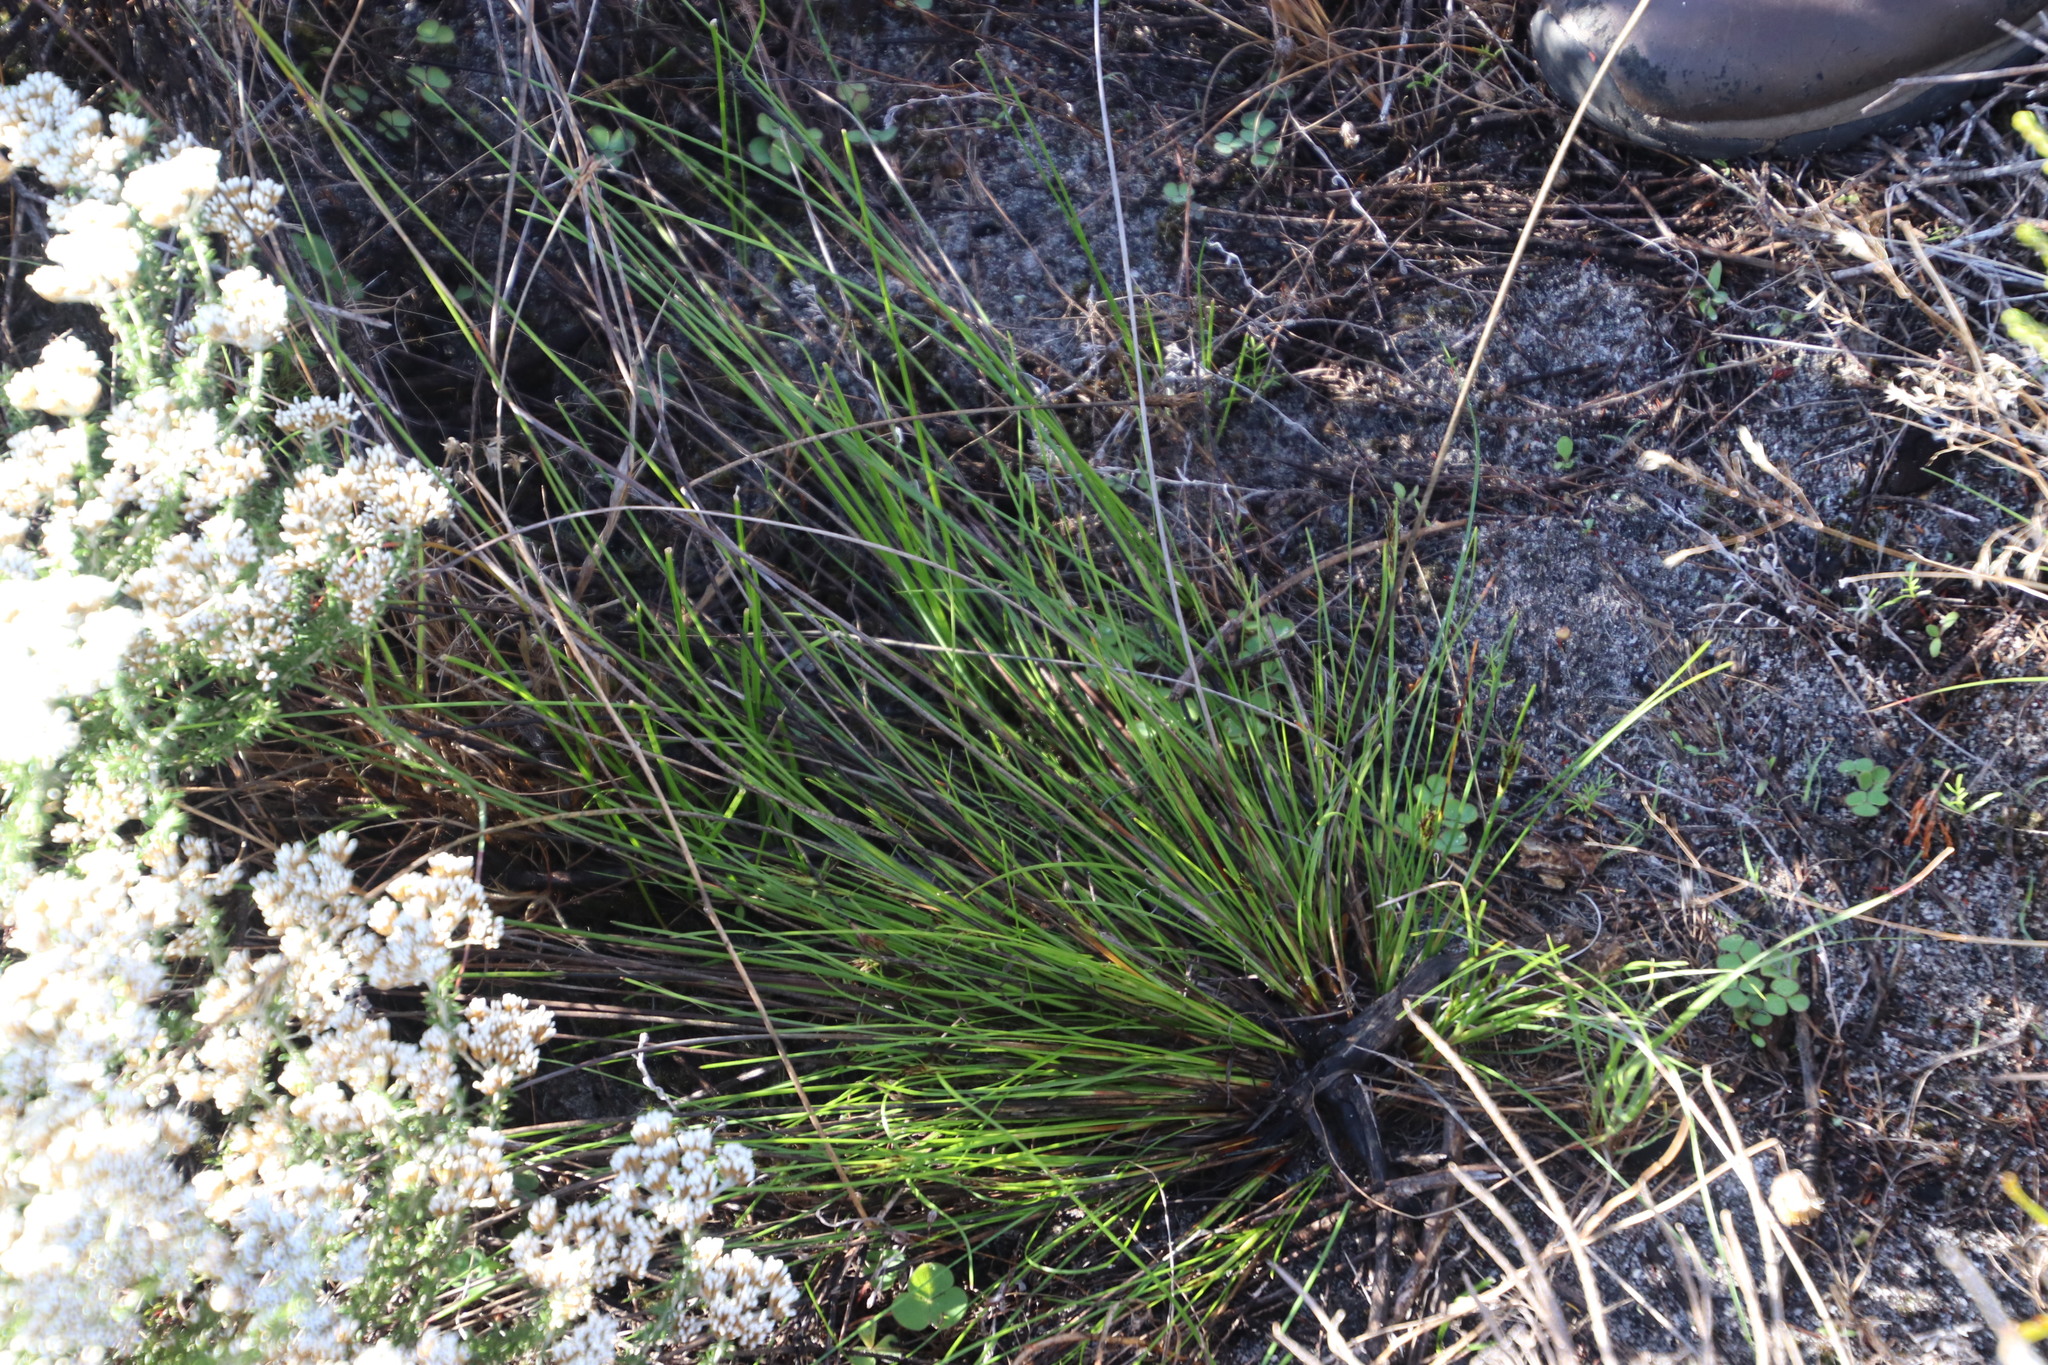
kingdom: Plantae
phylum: Tracheophyta
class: Liliopsida
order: Poales
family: Cyperaceae
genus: Schoenus
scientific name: Schoenus auritus
